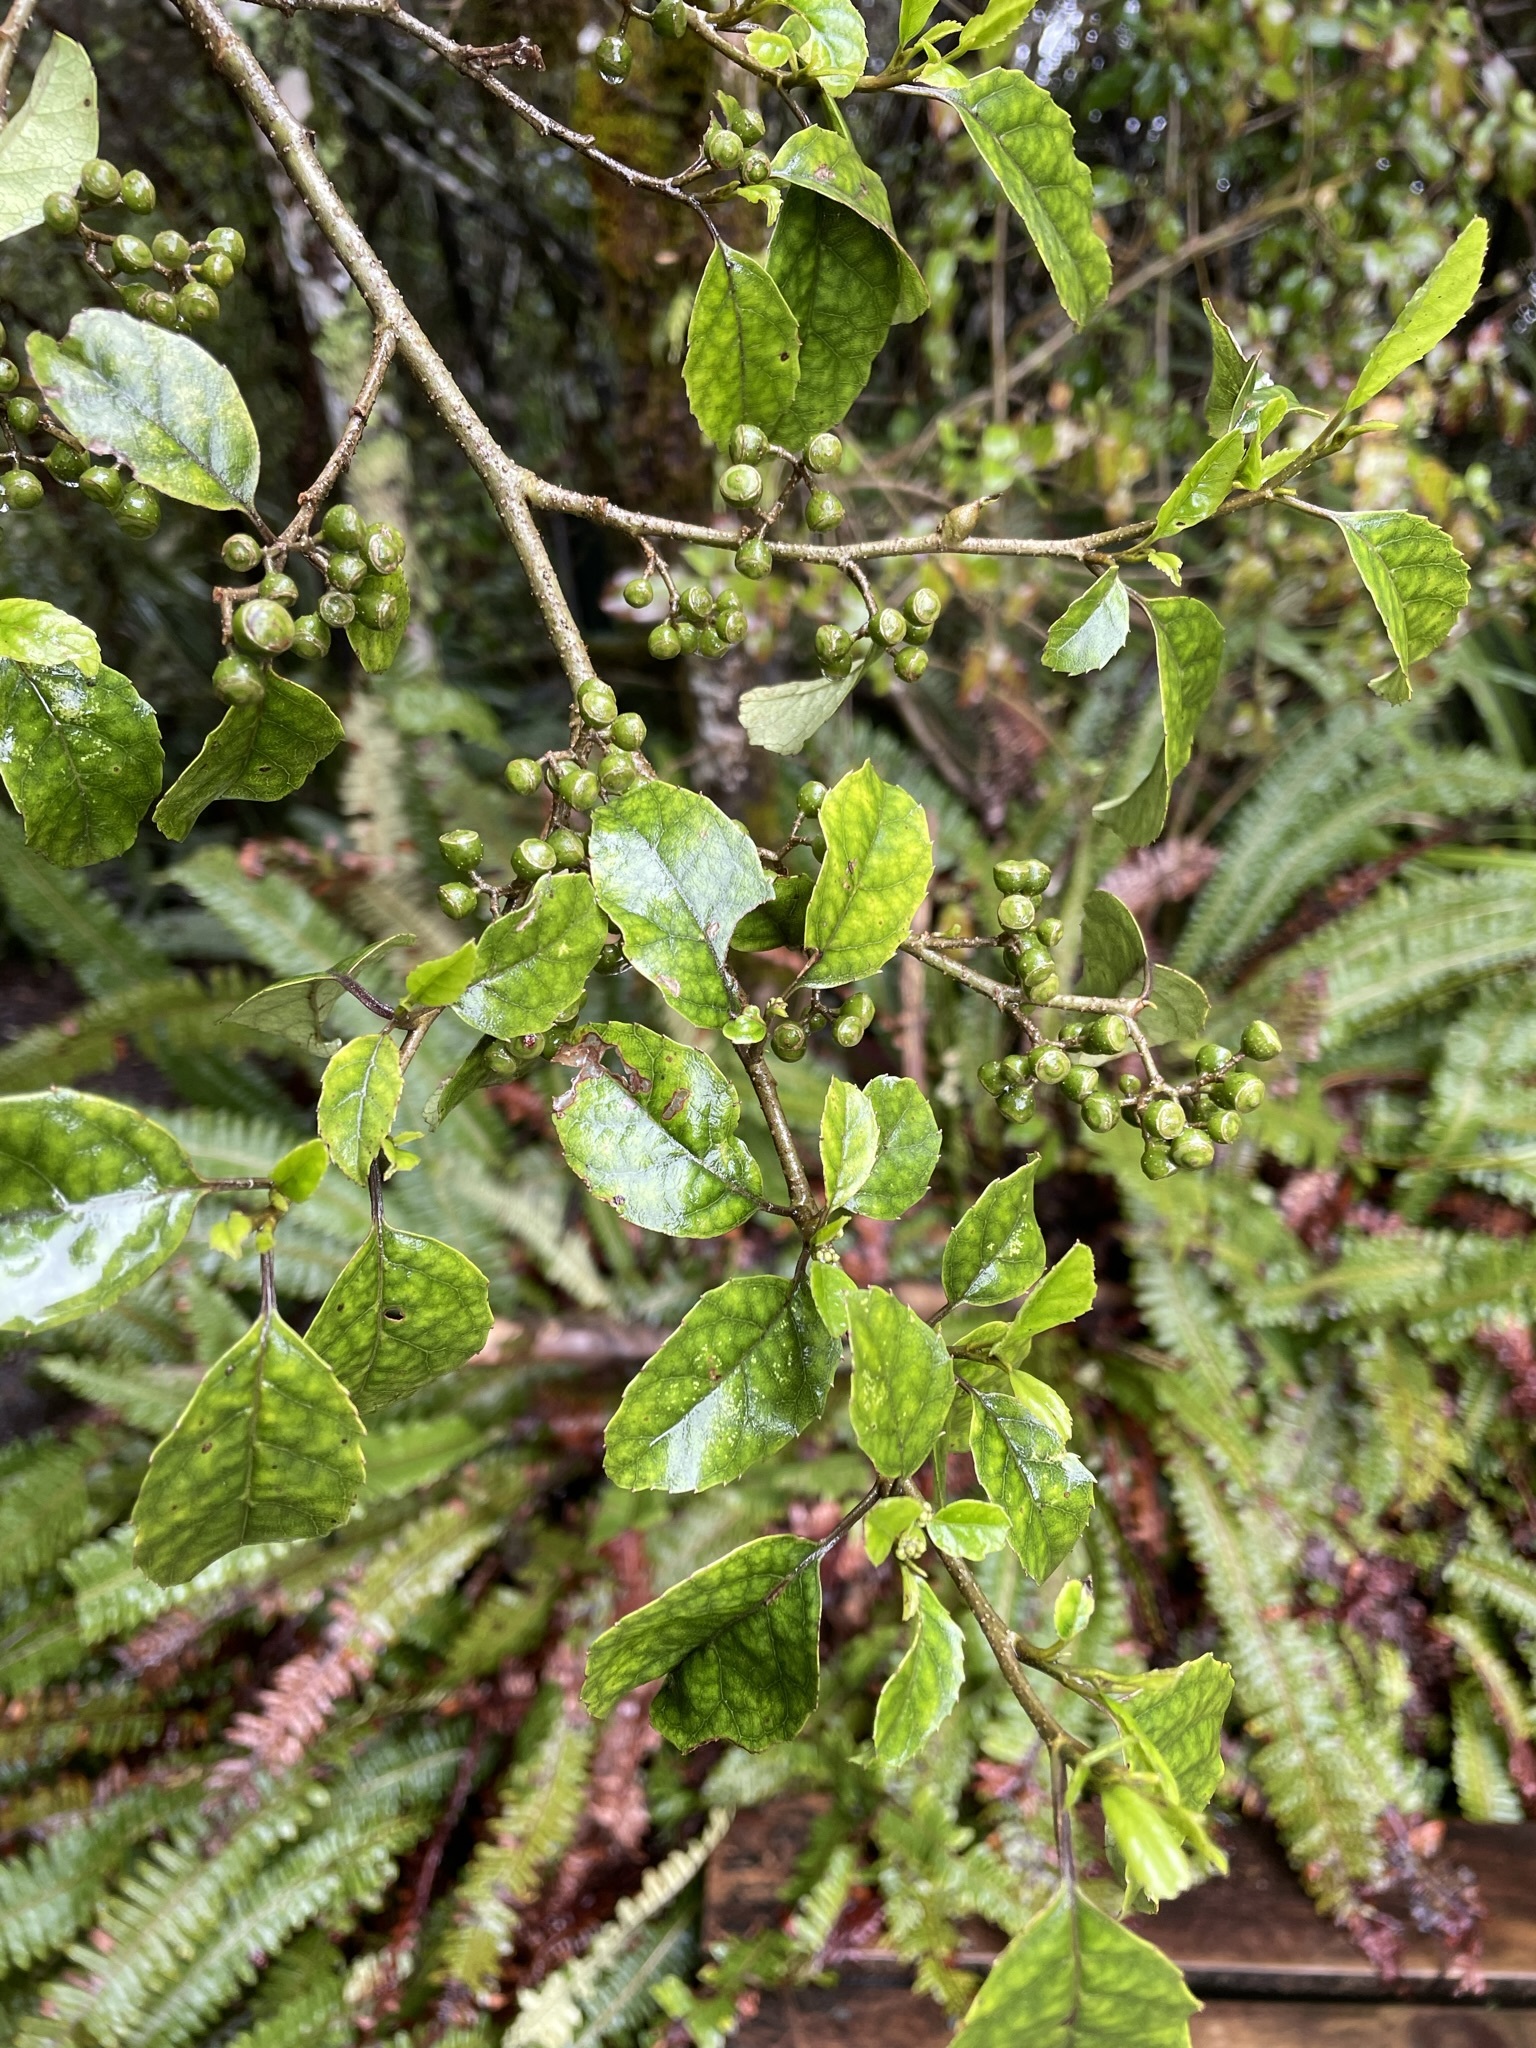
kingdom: Plantae
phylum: Tracheophyta
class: Magnoliopsida
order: Asterales
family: Rousseaceae
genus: Carpodetus
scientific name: Carpodetus serratus
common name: White mapau
